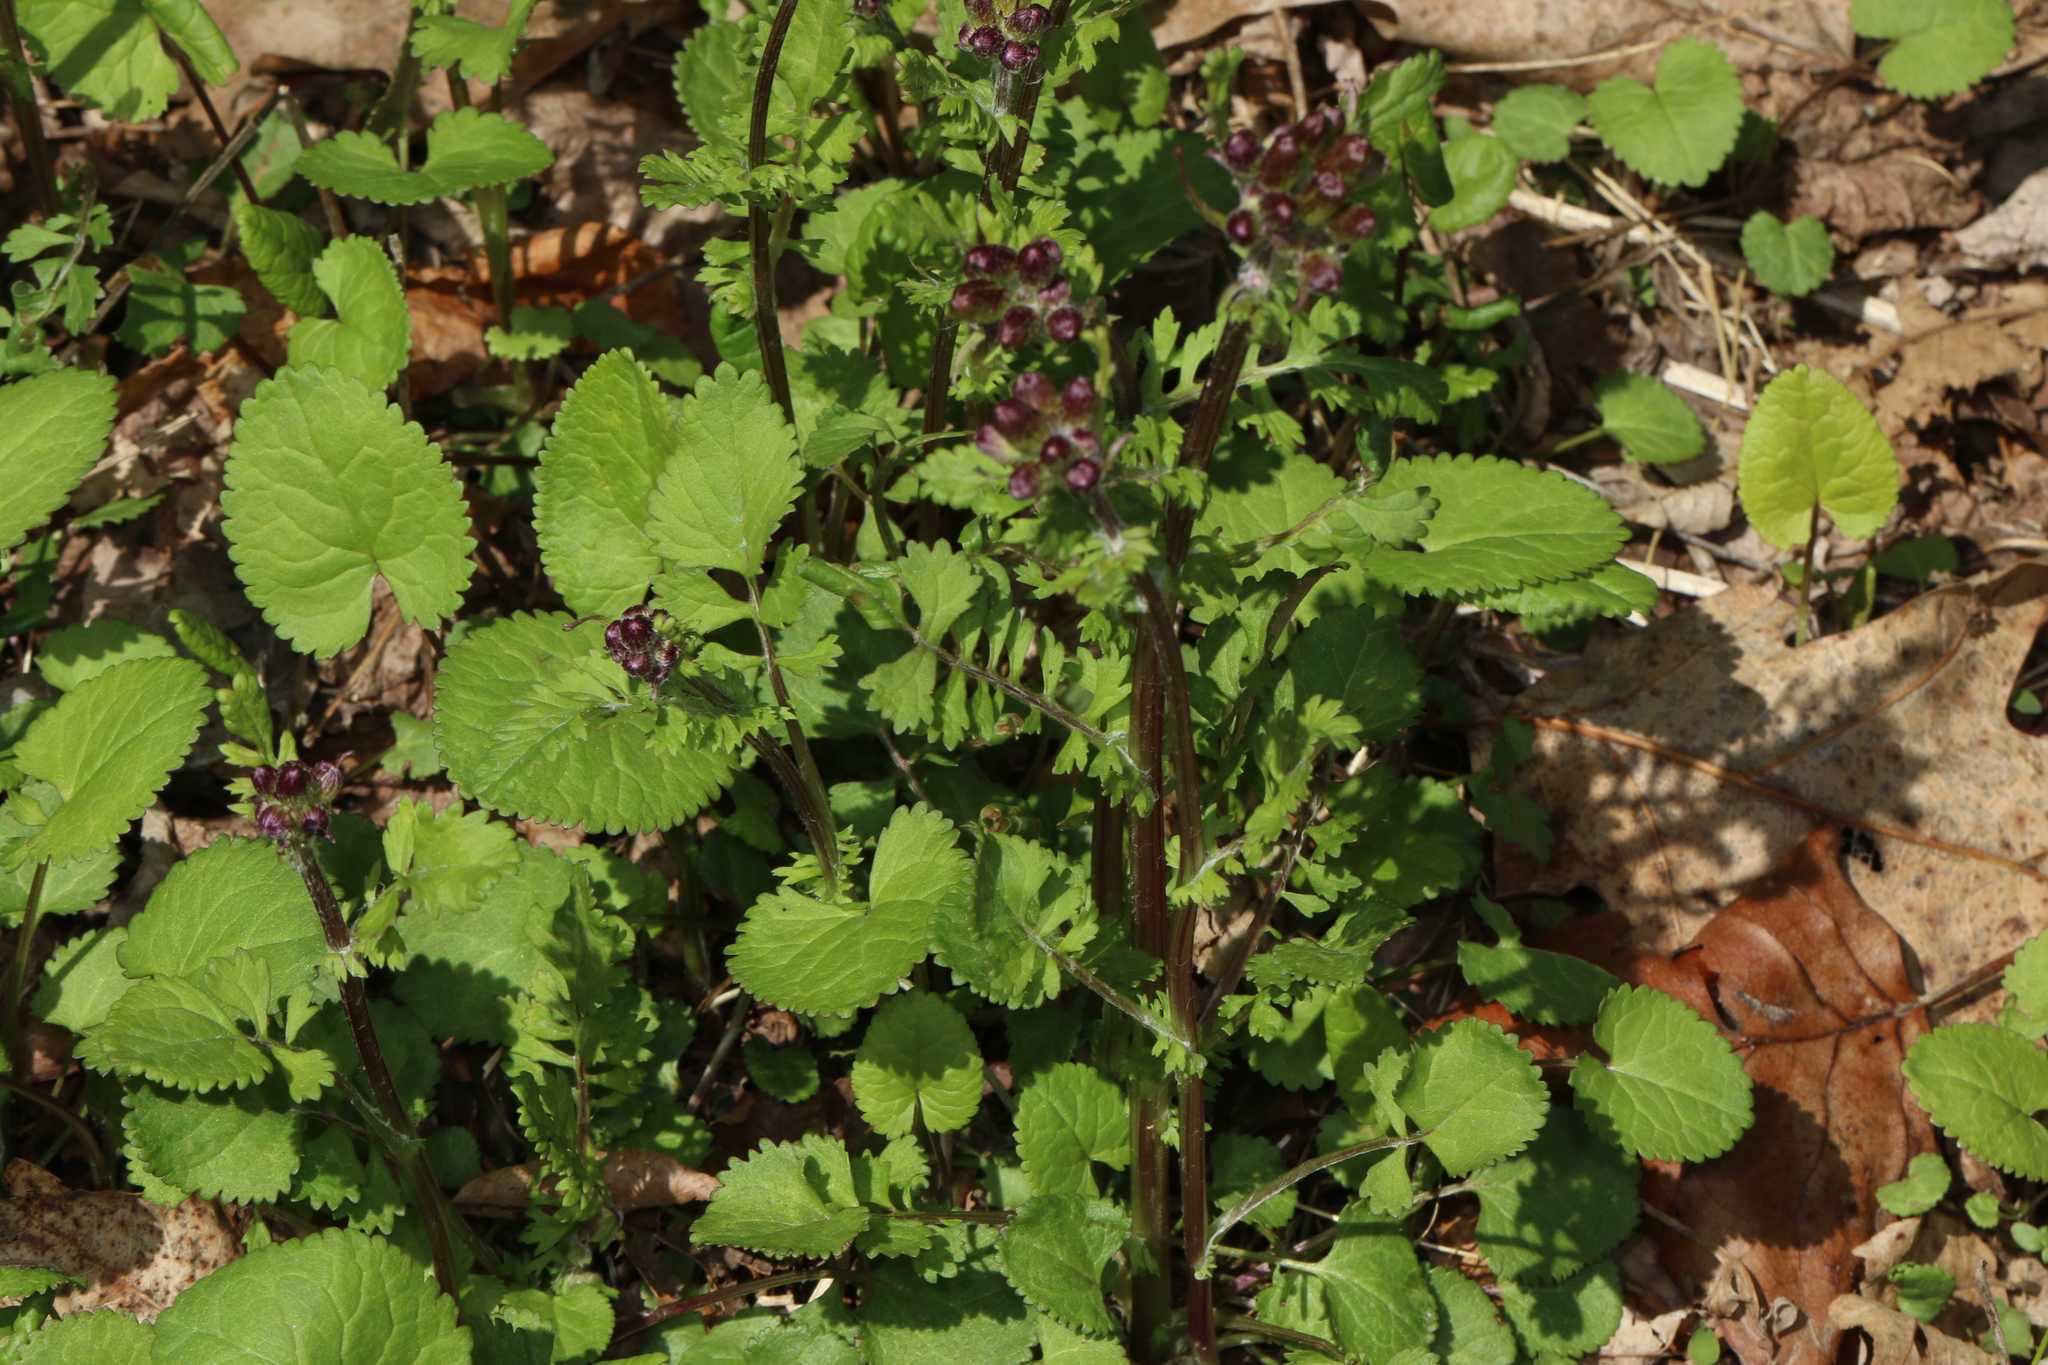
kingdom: Plantae
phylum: Tracheophyta
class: Magnoliopsida
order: Asterales
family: Asteraceae
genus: Packera
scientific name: Packera aurea
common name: Golden groundsel
